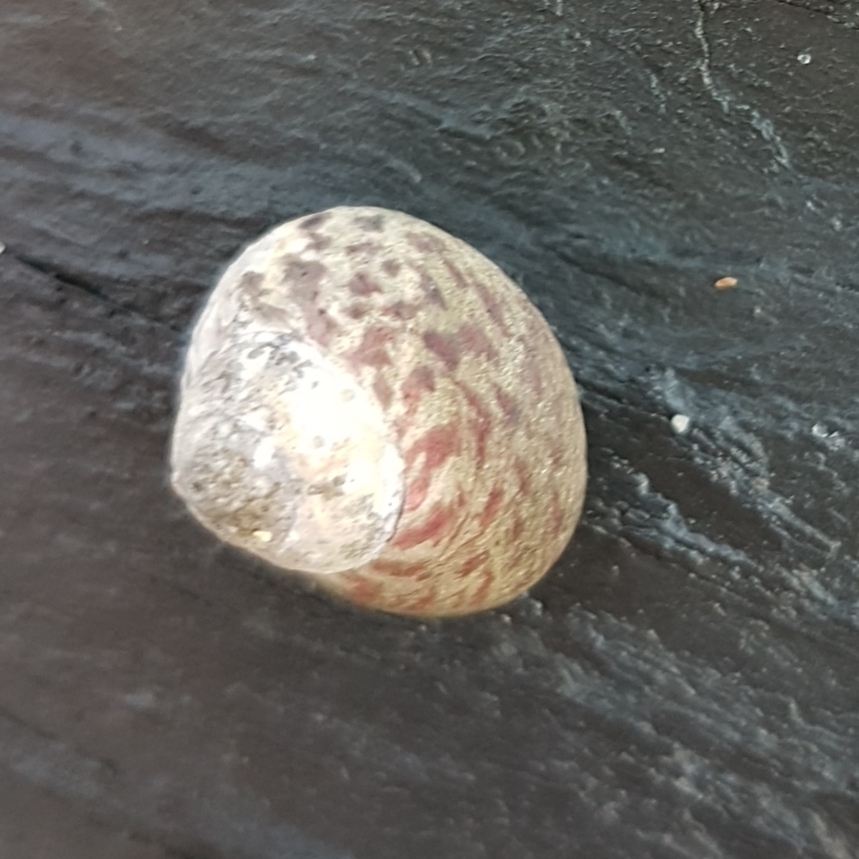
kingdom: Animalia
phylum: Mollusca
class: Gastropoda
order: Trochida
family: Trochidae
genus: Phorcus
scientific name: Phorcus sauciatus
